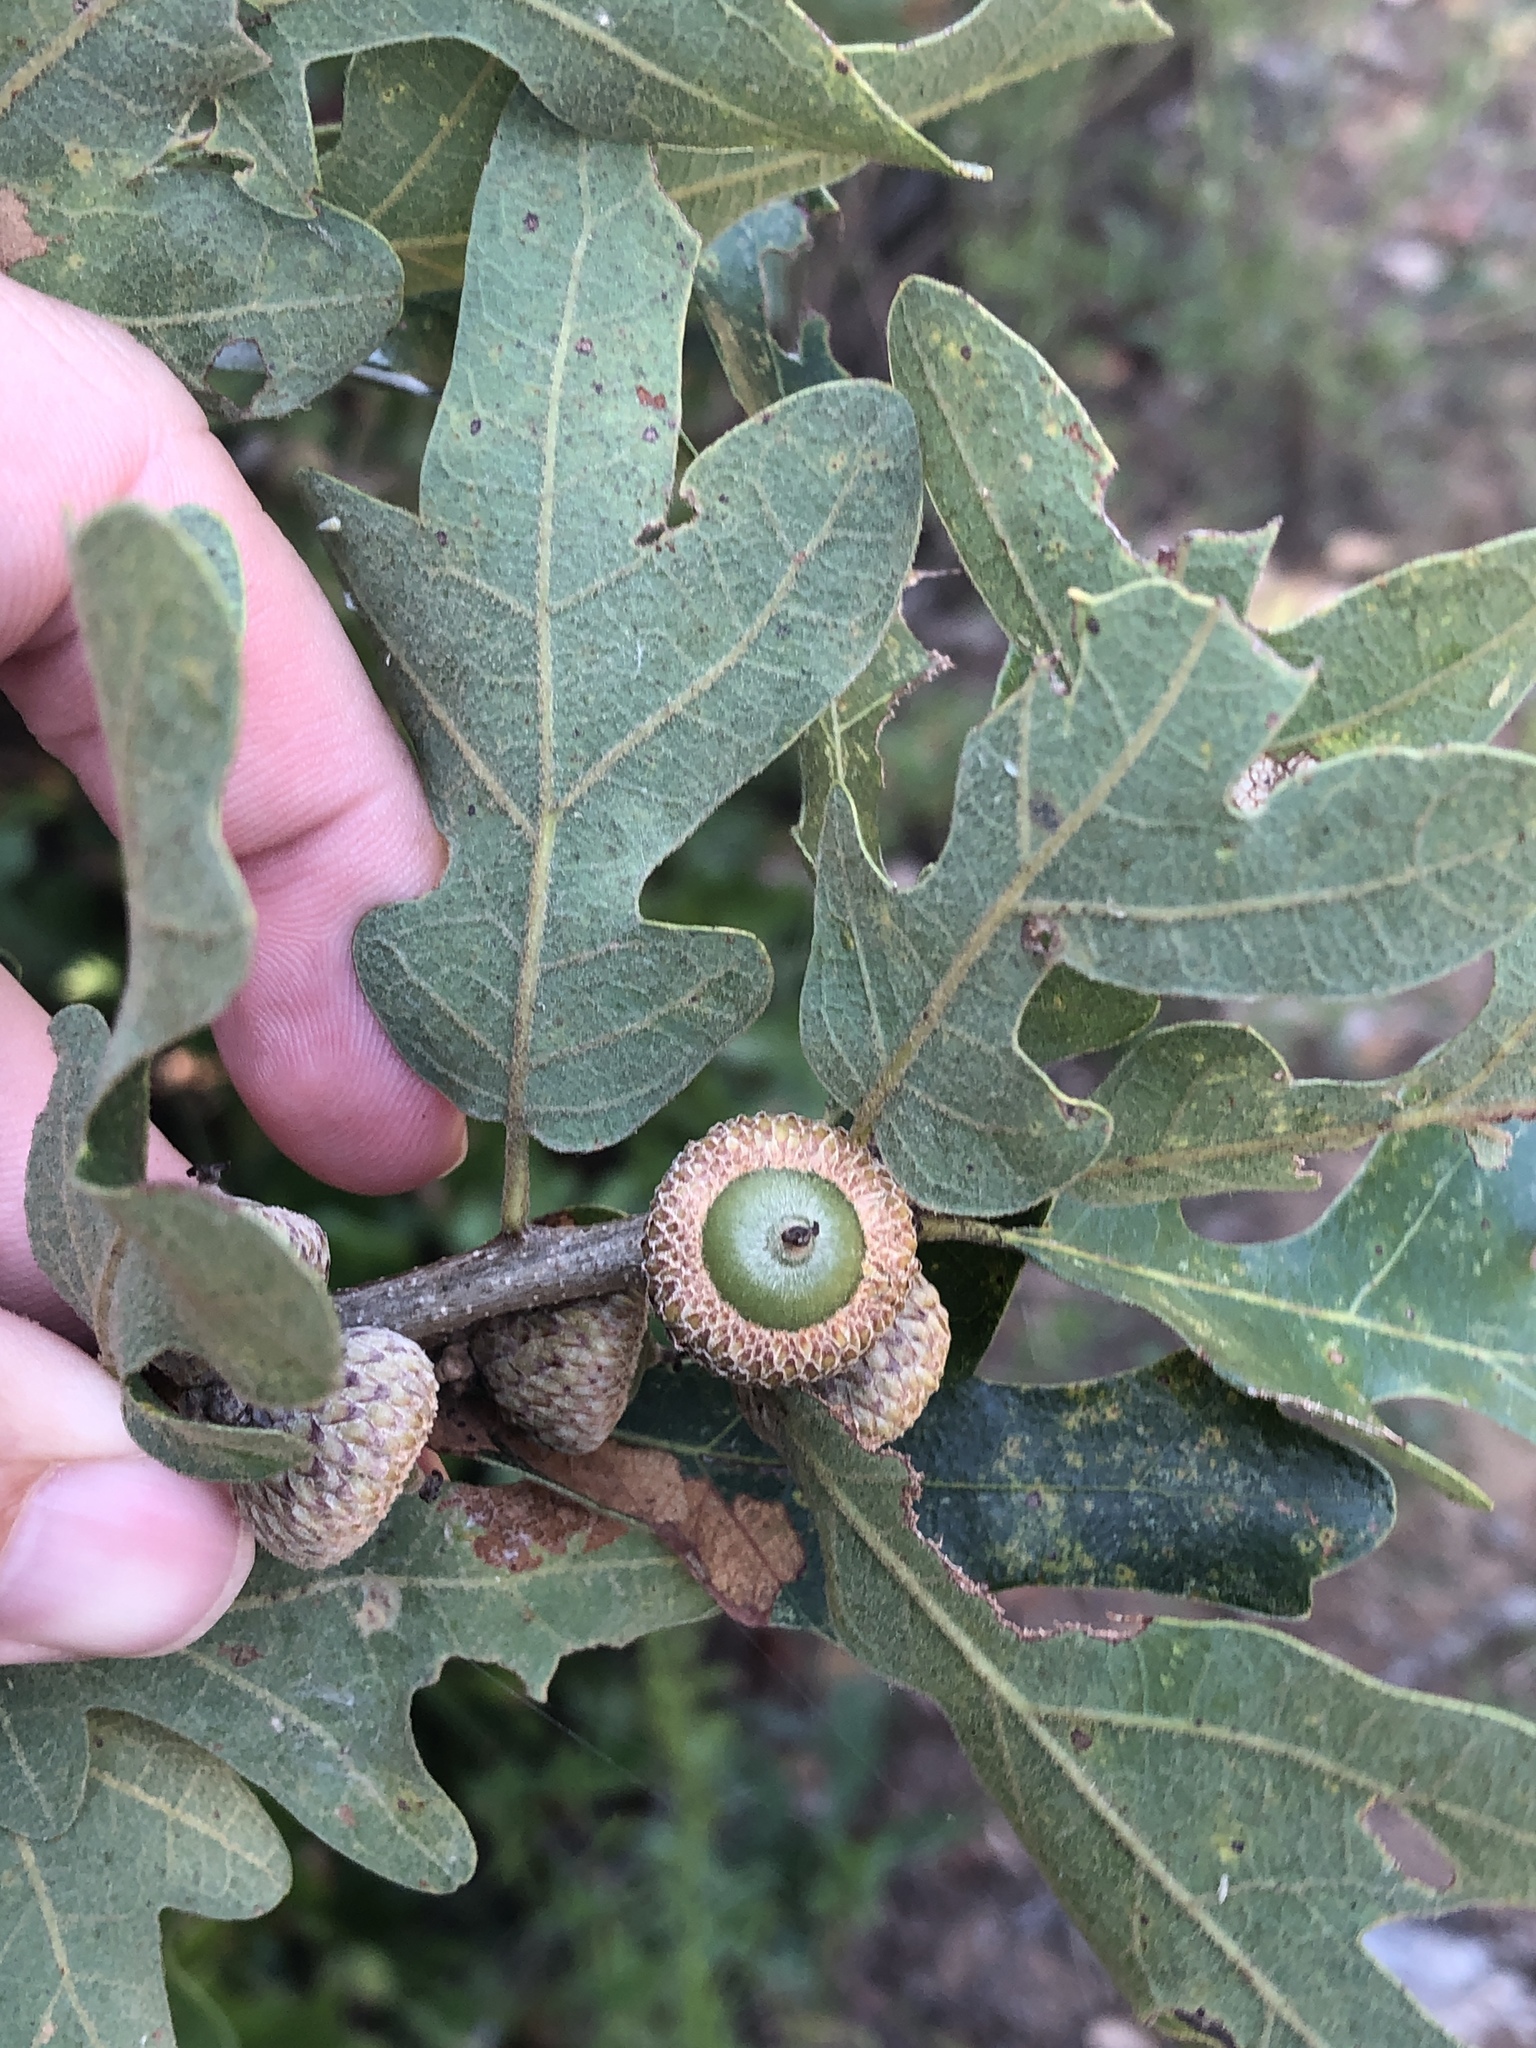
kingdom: Plantae
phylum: Tracheophyta
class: Magnoliopsida
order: Fagales
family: Fagaceae
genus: Quercus
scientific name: Quercus stellata
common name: Post oak
